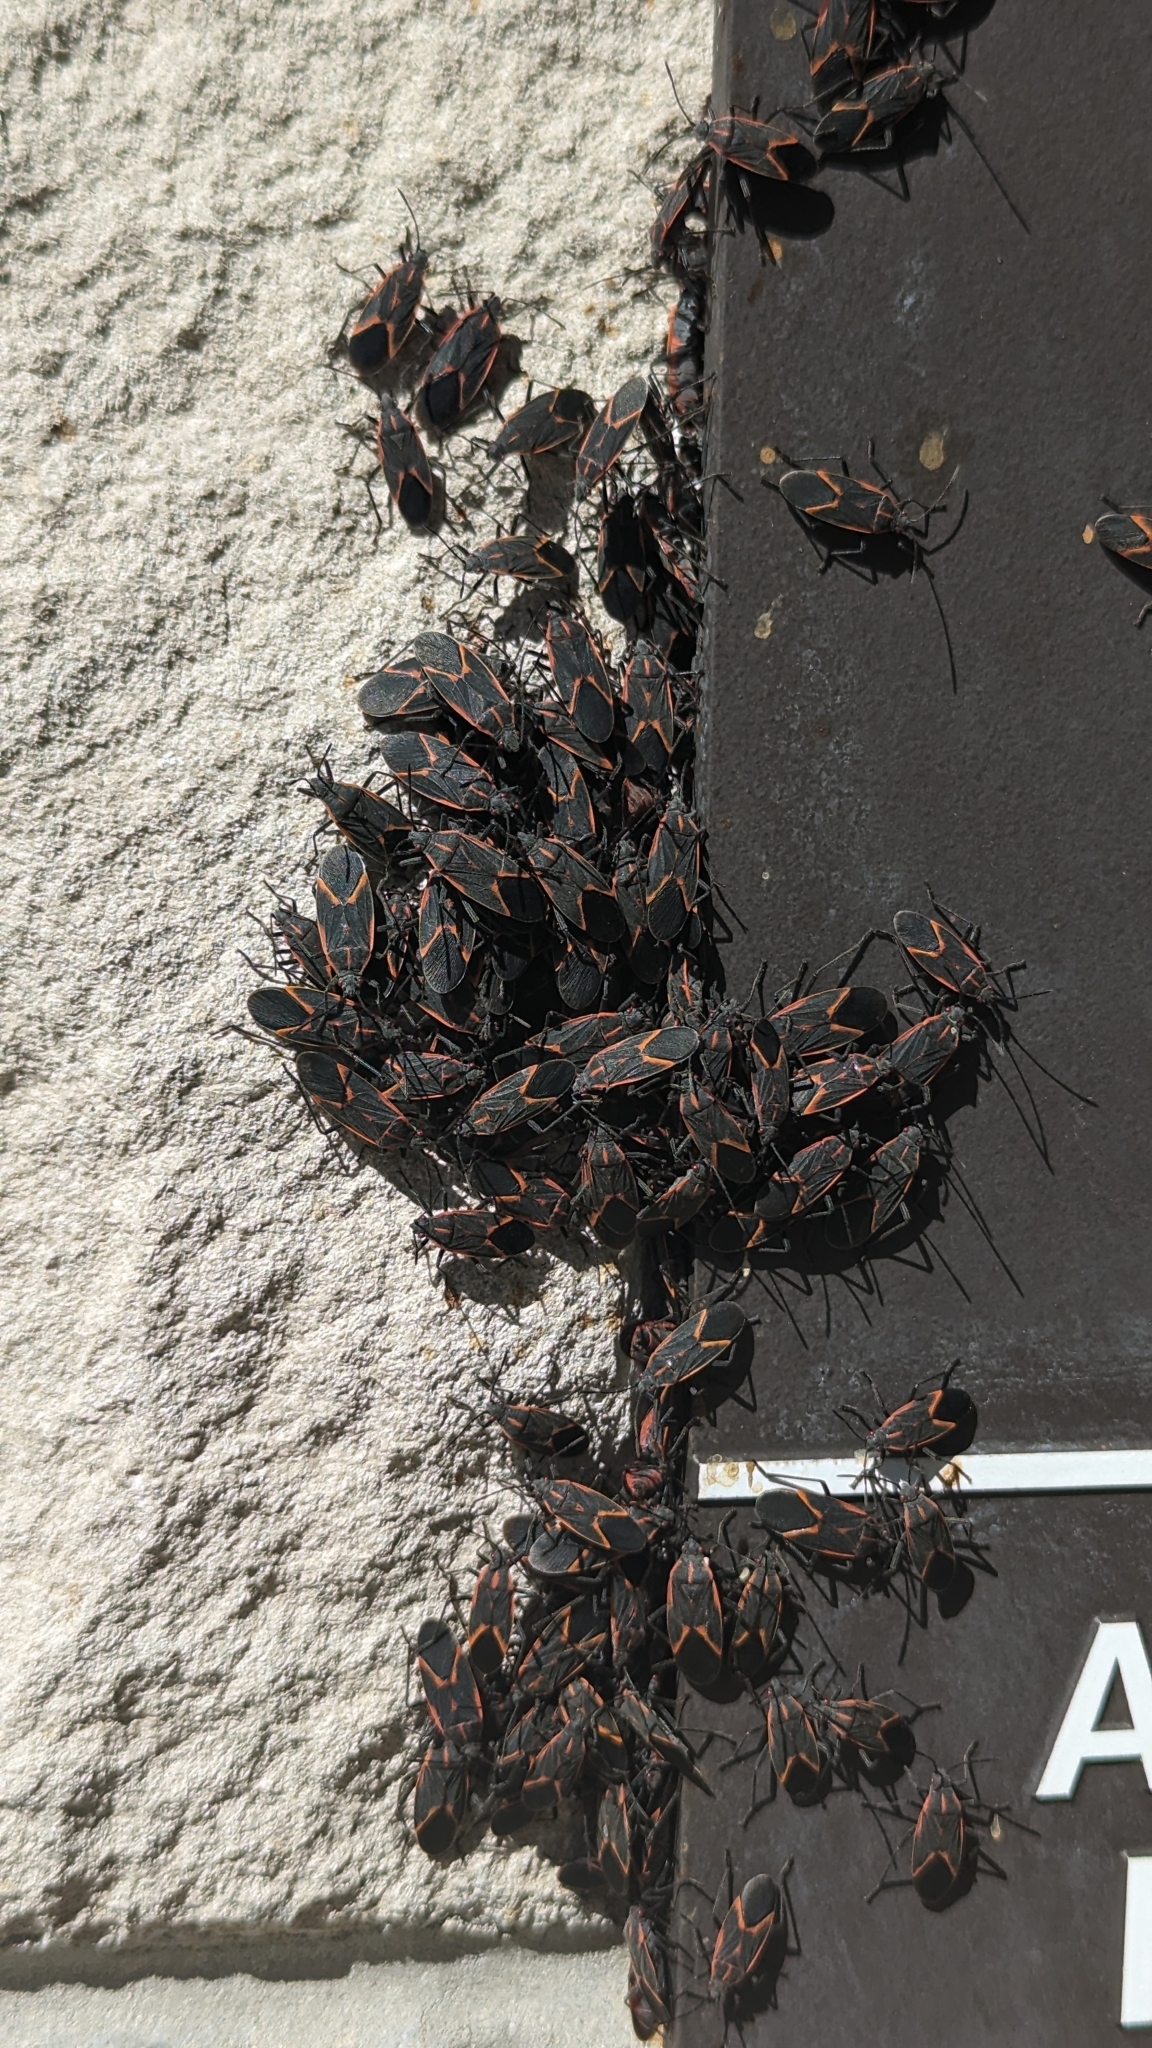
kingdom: Animalia
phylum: Arthropoda
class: Insecta
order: Hemiptera
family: Rhopalidae
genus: Boisea
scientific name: Boisea trivittata
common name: Boxelder bug
